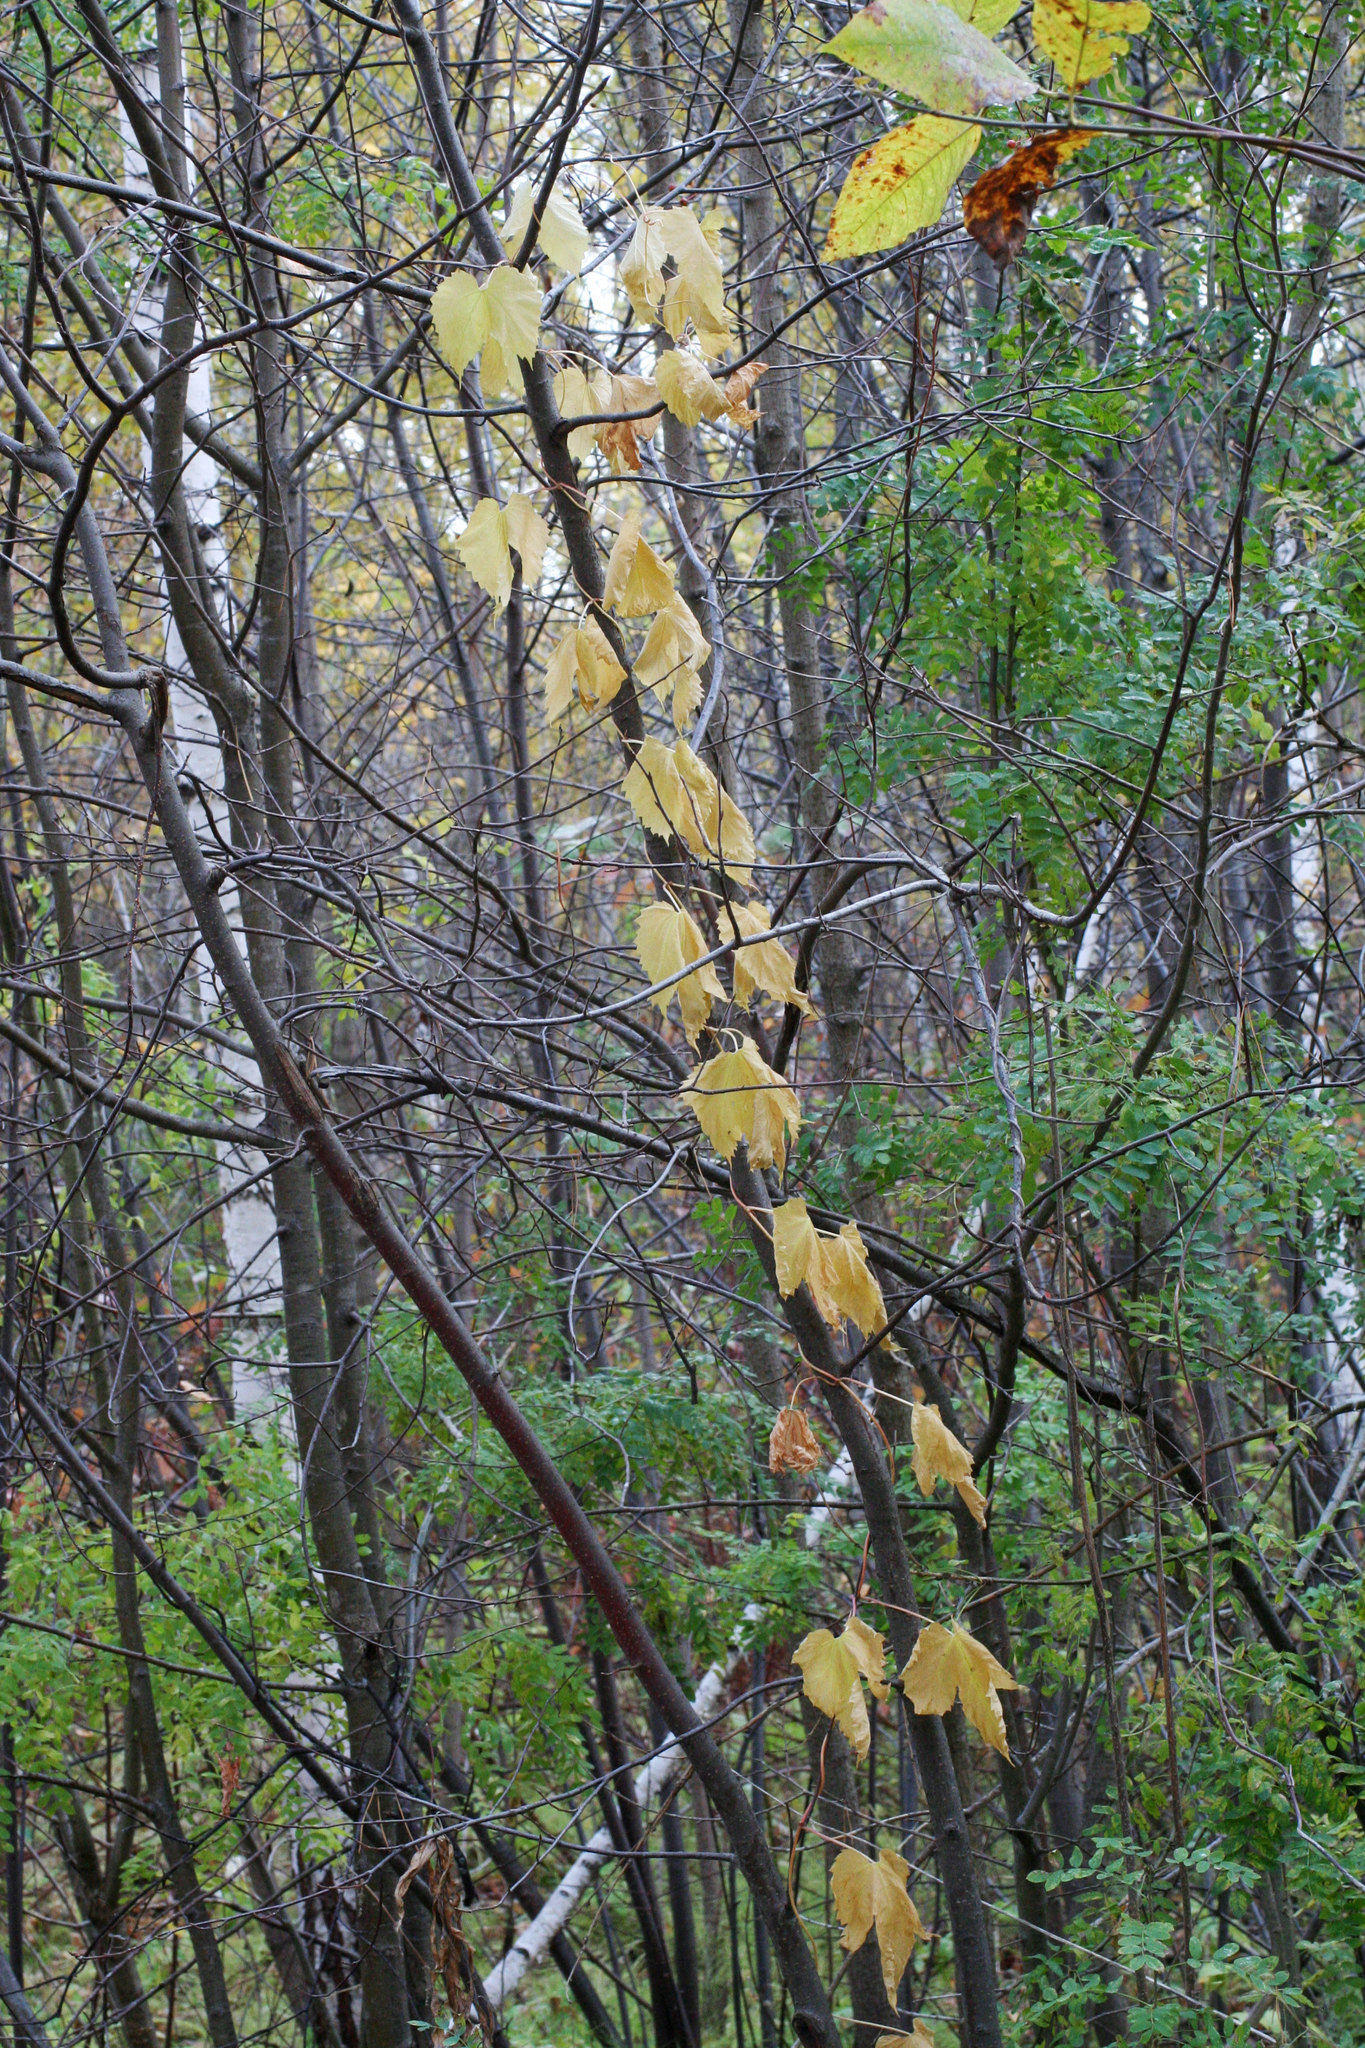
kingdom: Plantae
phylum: Tracheophyta
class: Magnoliopsida
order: Rosales
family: Cannabaceae
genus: Humulus
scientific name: Humulus lupulus
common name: Hop
